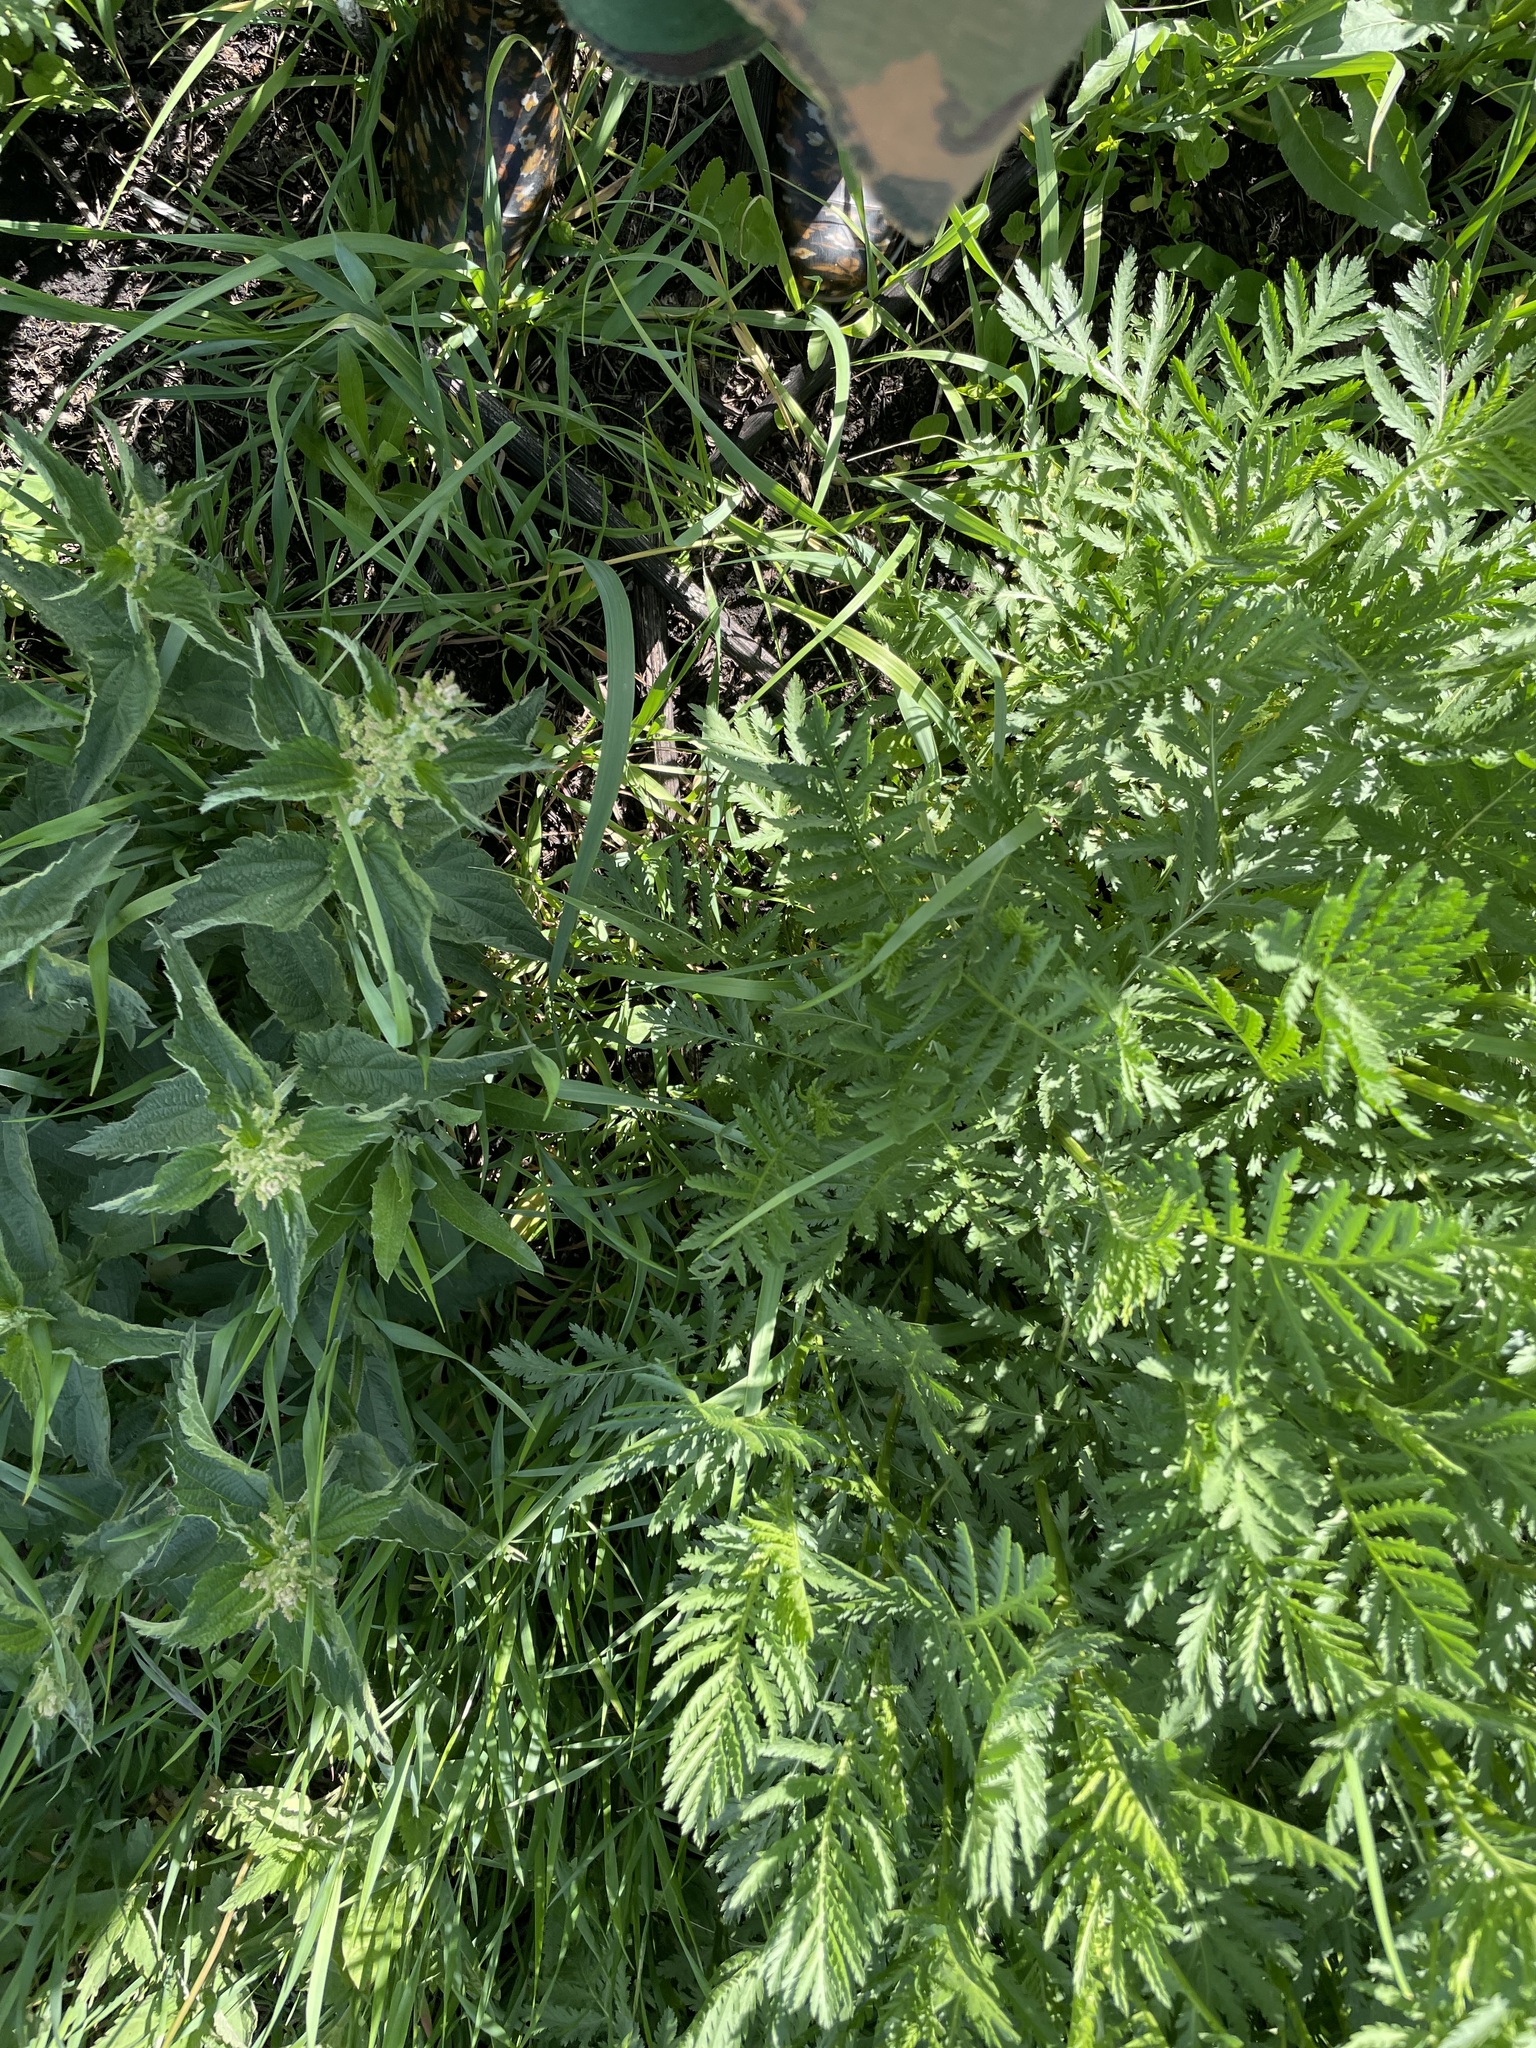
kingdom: Plantae
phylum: Tracheophyta
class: Magnoliopsida
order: Asterales
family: Asteraceae
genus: Tanacetum
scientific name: Tanacetum vulgare
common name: Common tansy
